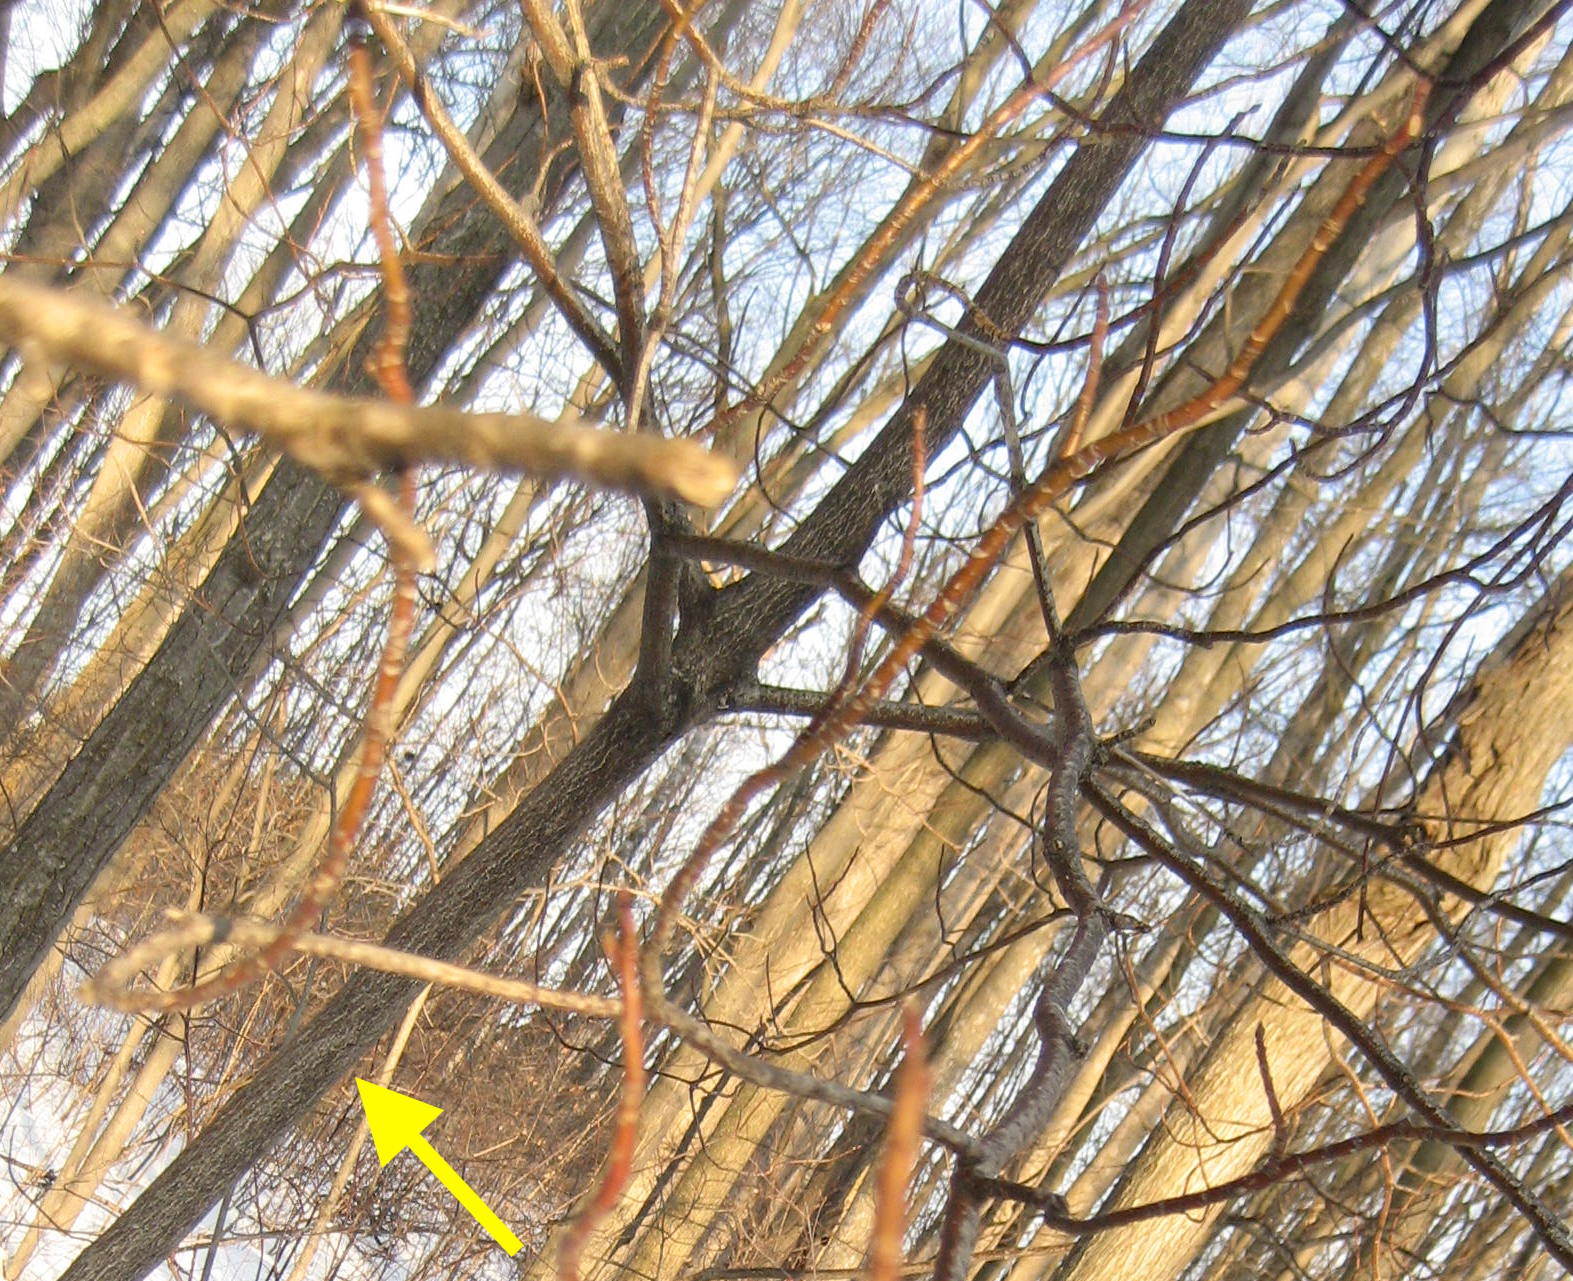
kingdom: Plantae
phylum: Tracheophyta
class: Magnoliopsida
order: Cornales
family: Cornaceae
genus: Cornus
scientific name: Cornus alternifolia
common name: Pagoda dogwood
